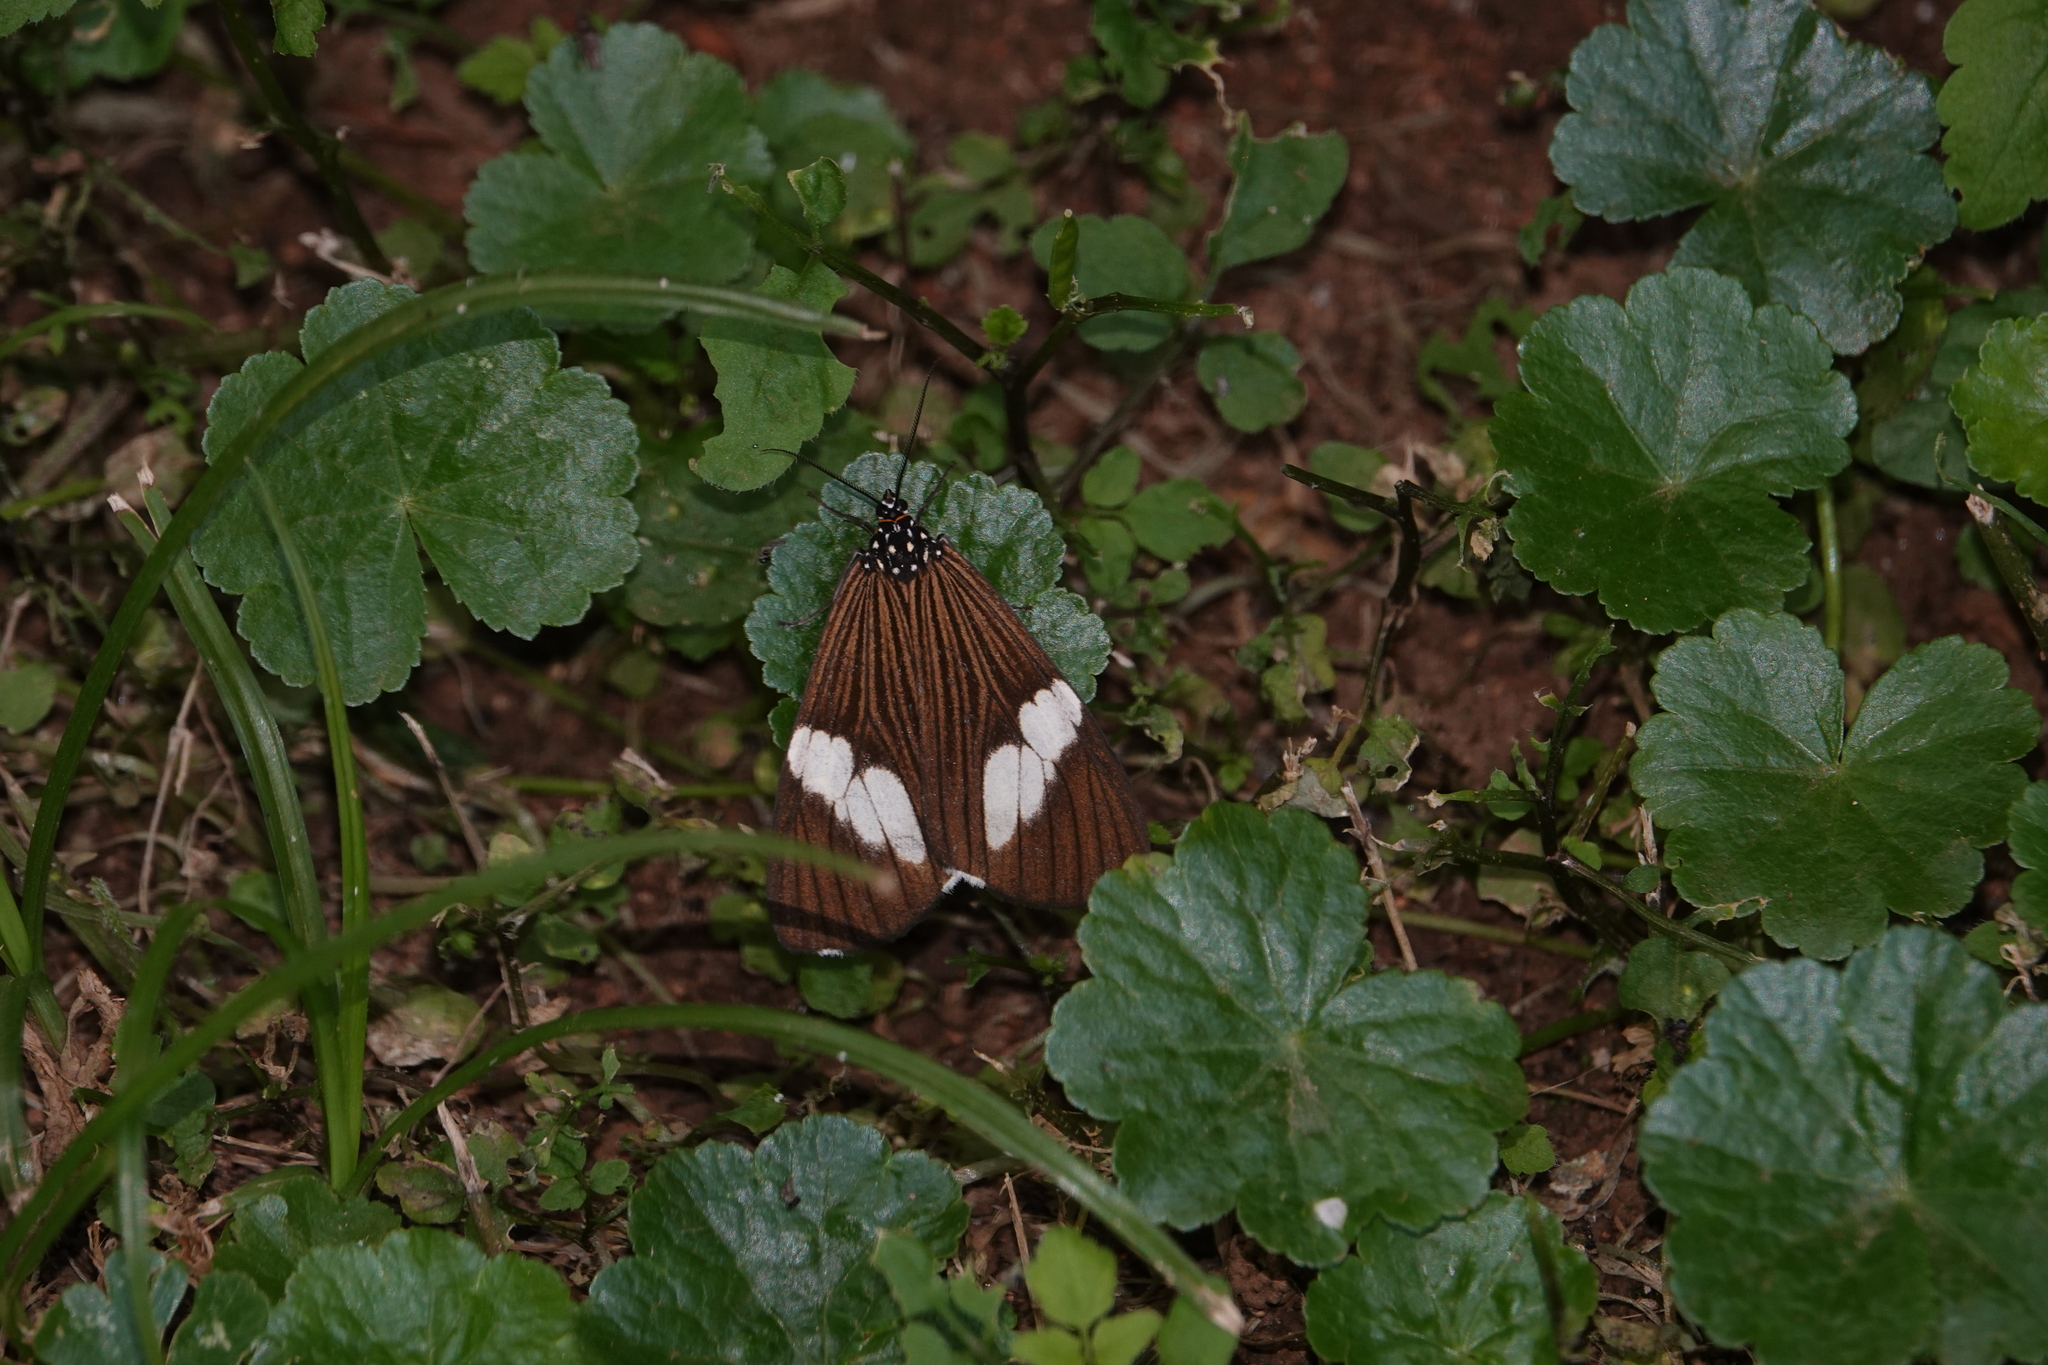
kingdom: Animalia
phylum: Arthropoda
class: Insecta
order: Lepidoptera
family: Erebidae
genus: Nyctemera
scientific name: Nyctemera
